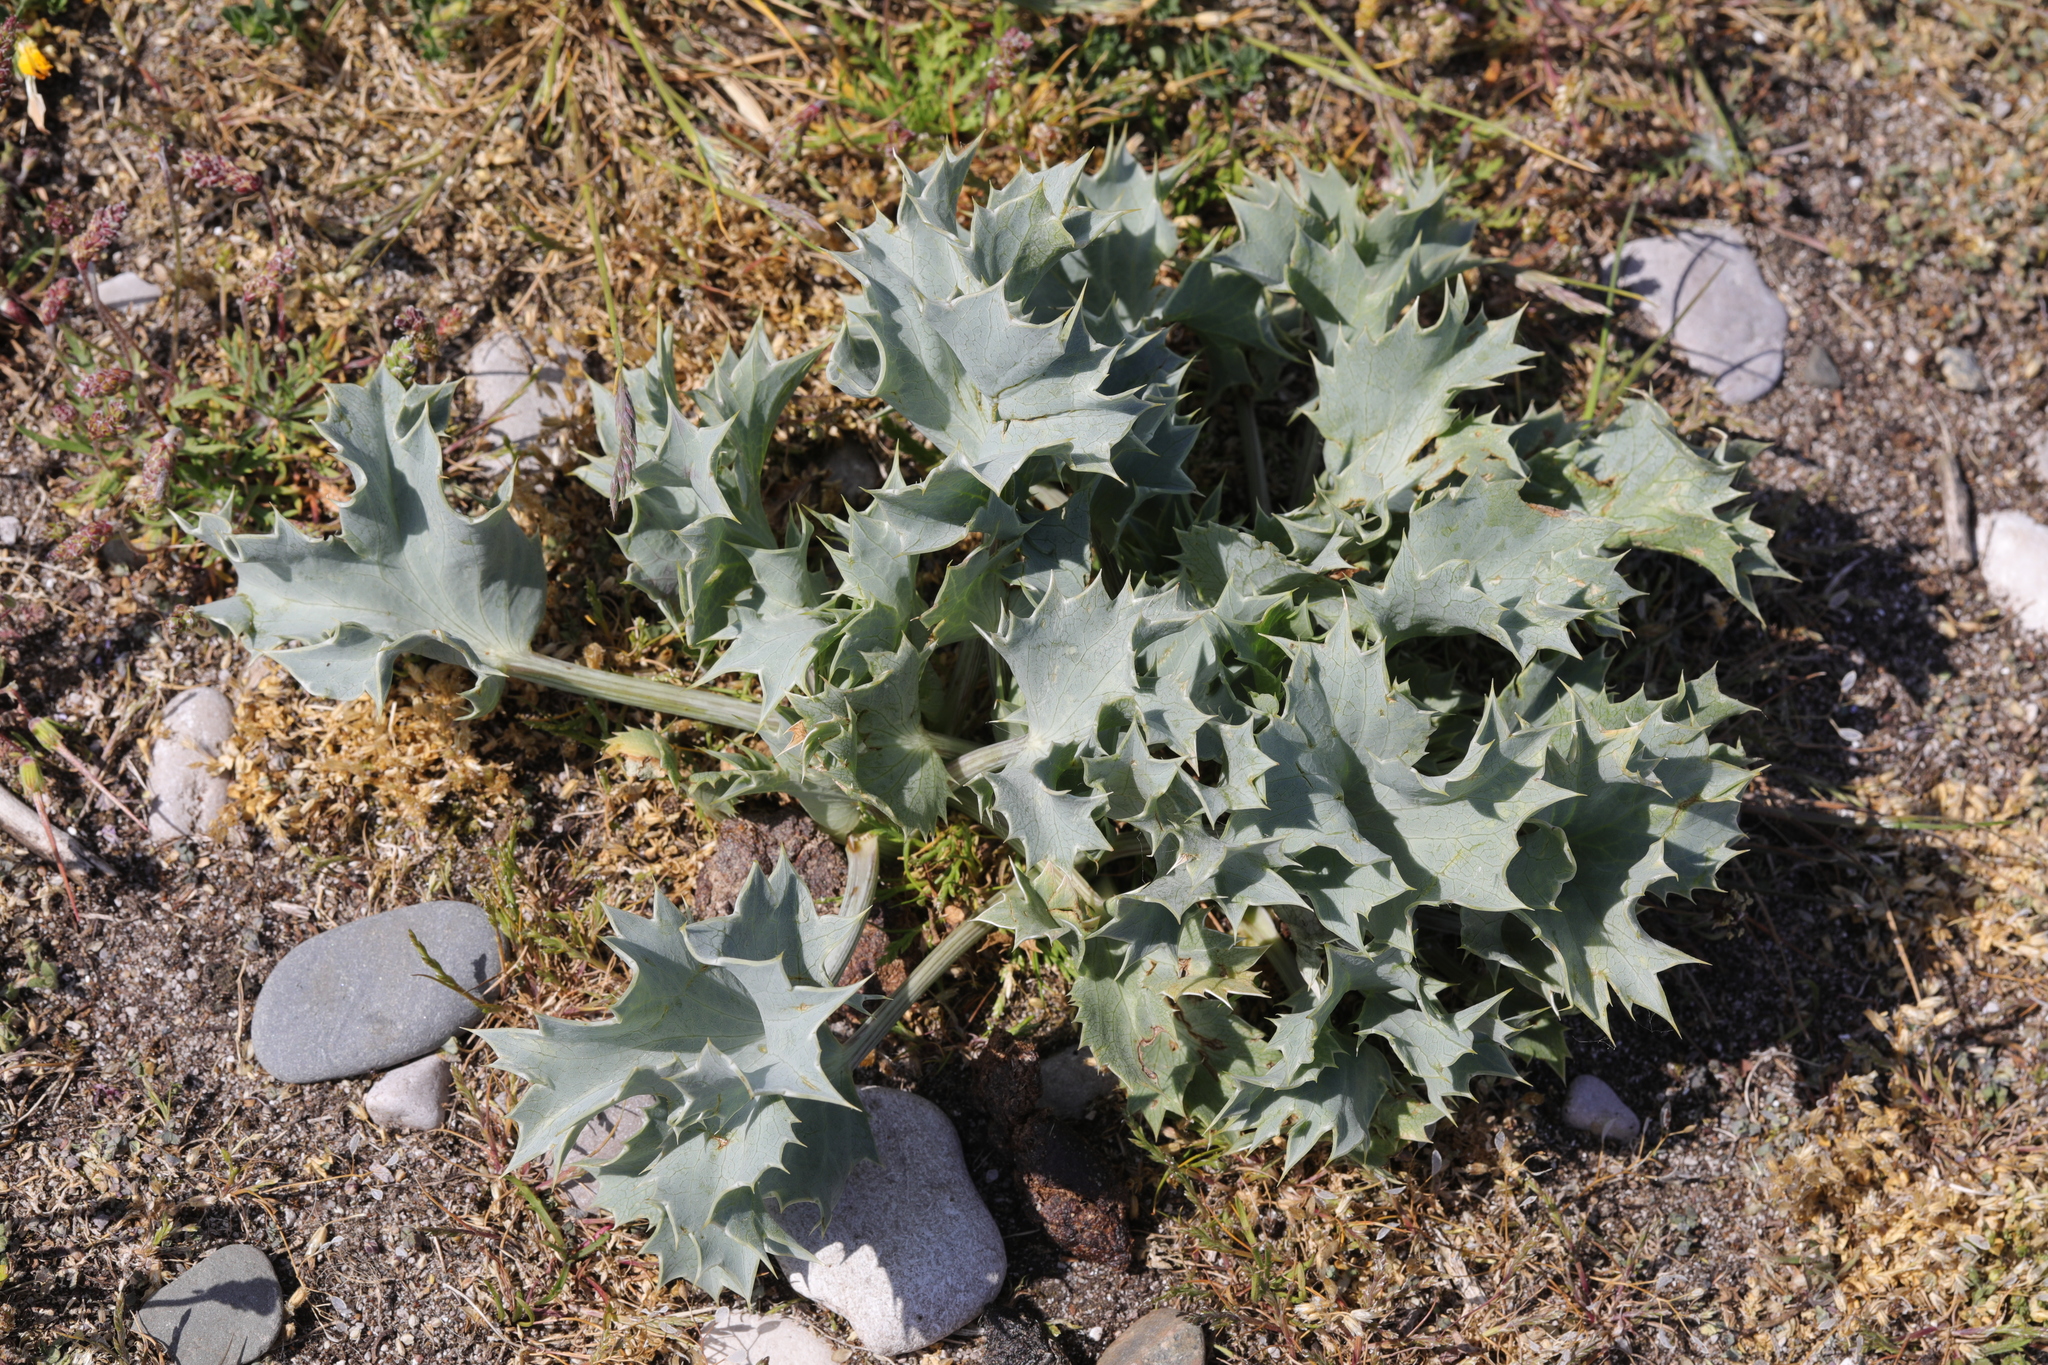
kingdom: Plantae
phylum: Tracheophyta
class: Magnoliopsida
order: Apiales
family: Apiaceae
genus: Eryngium
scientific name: Eryngium maritimum
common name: Sea-holly
